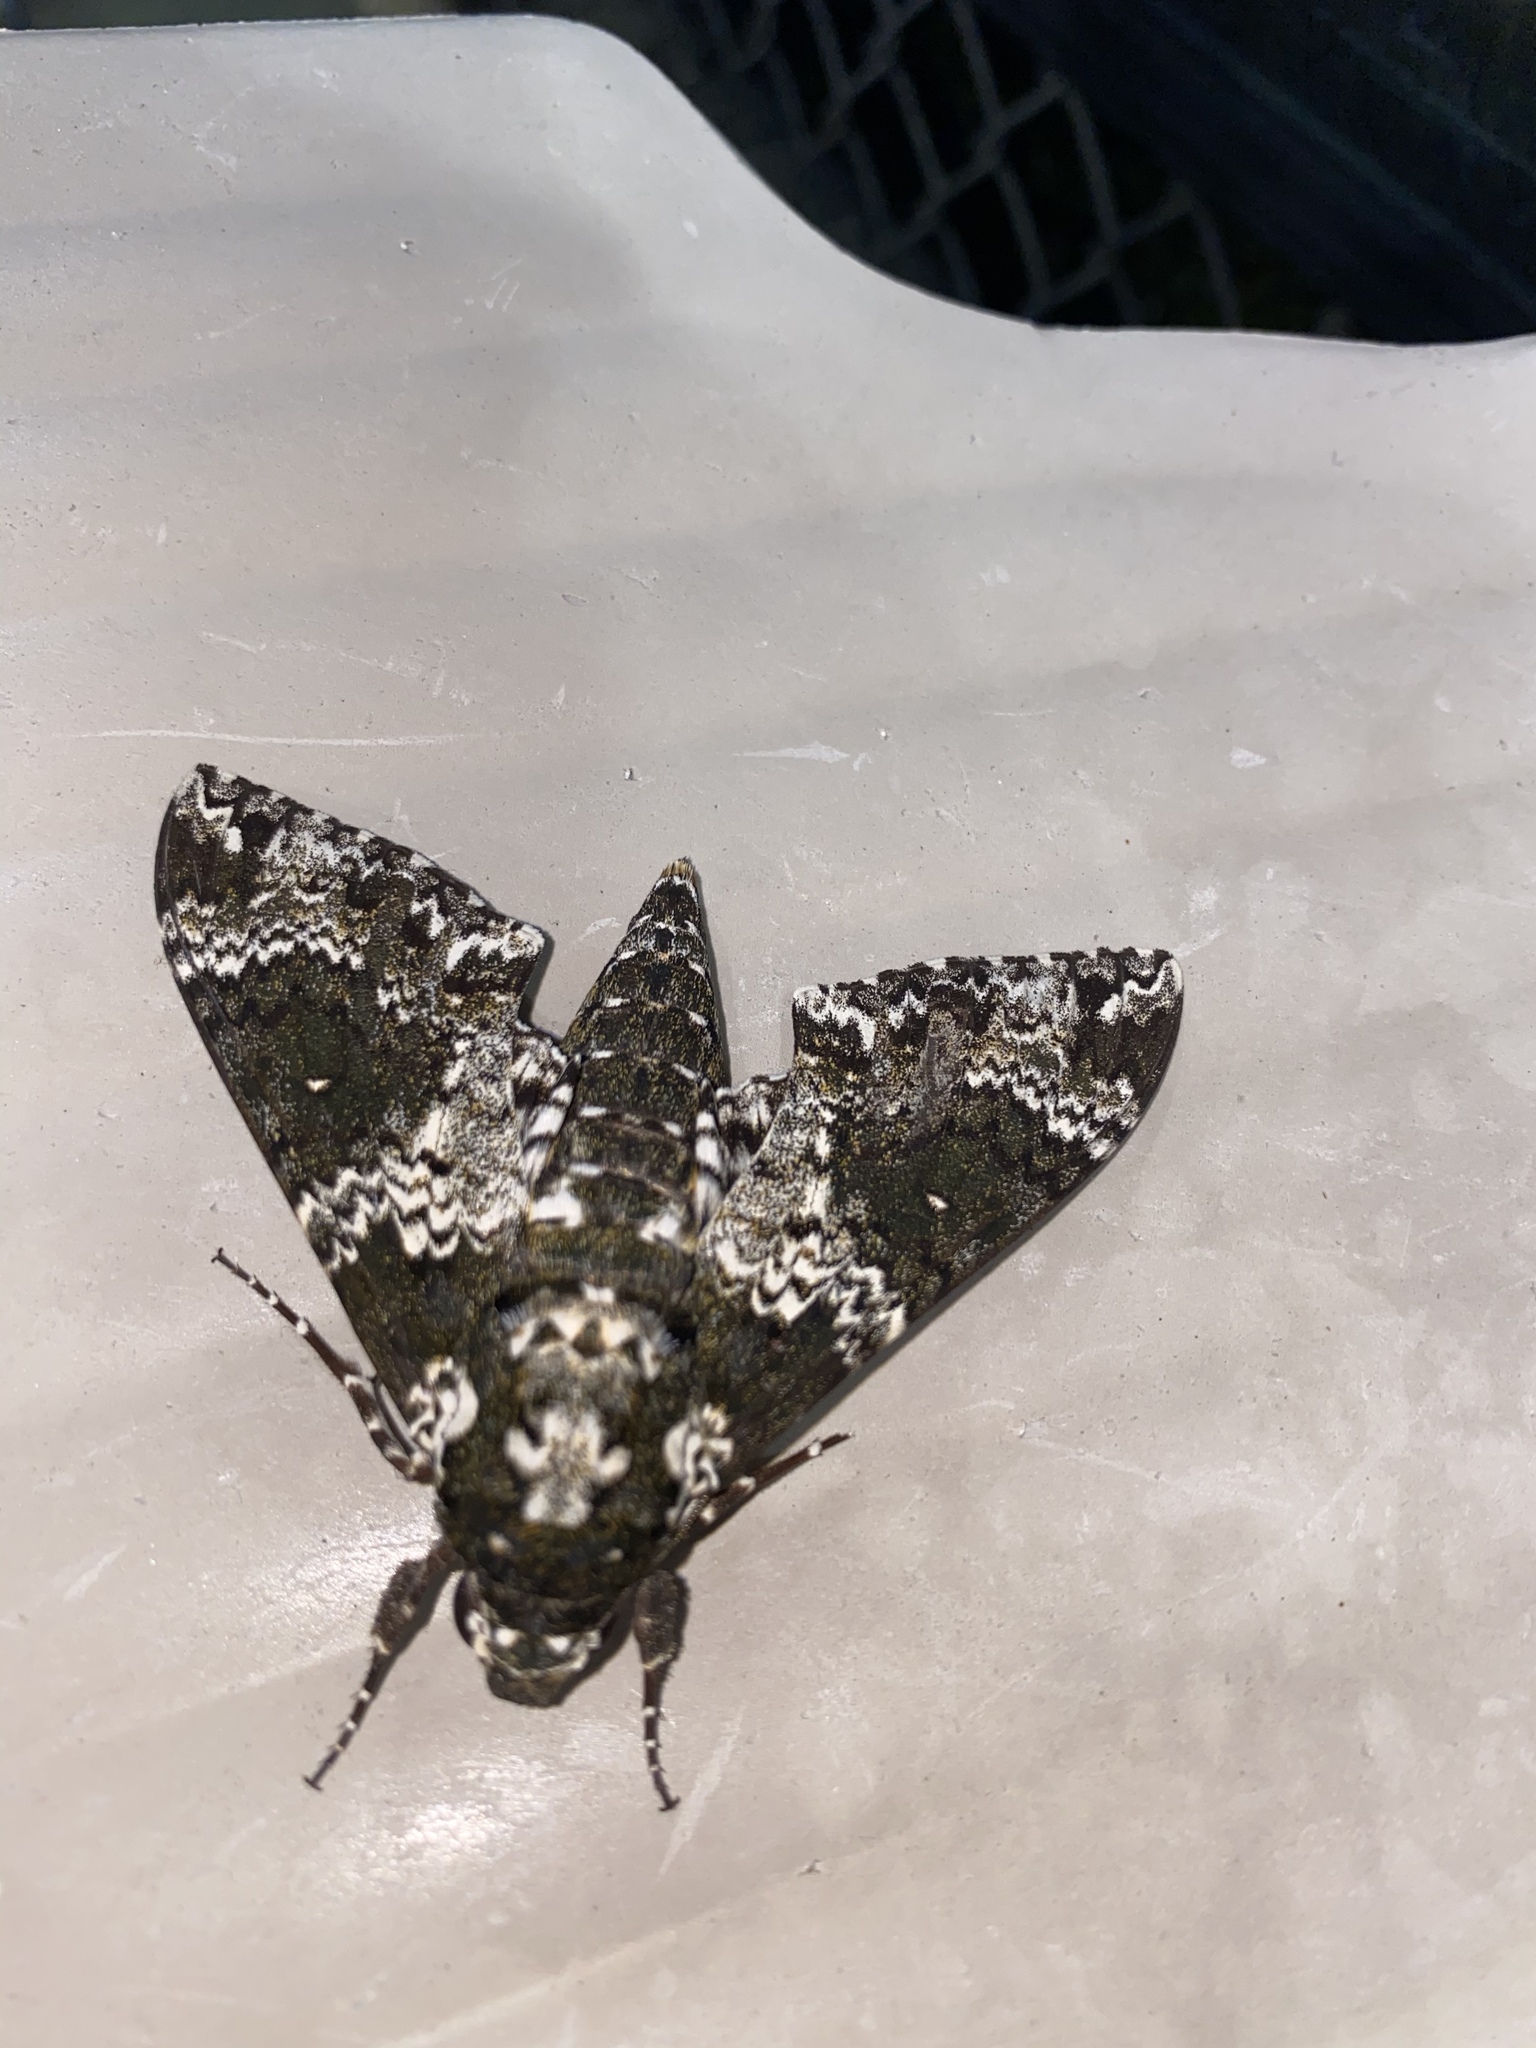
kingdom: Animalia
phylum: Arthropoda
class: Insecta
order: Lepidoptera
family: Sphingidae
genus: Manduca
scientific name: Manduca rustica
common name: Rustic sphinx
